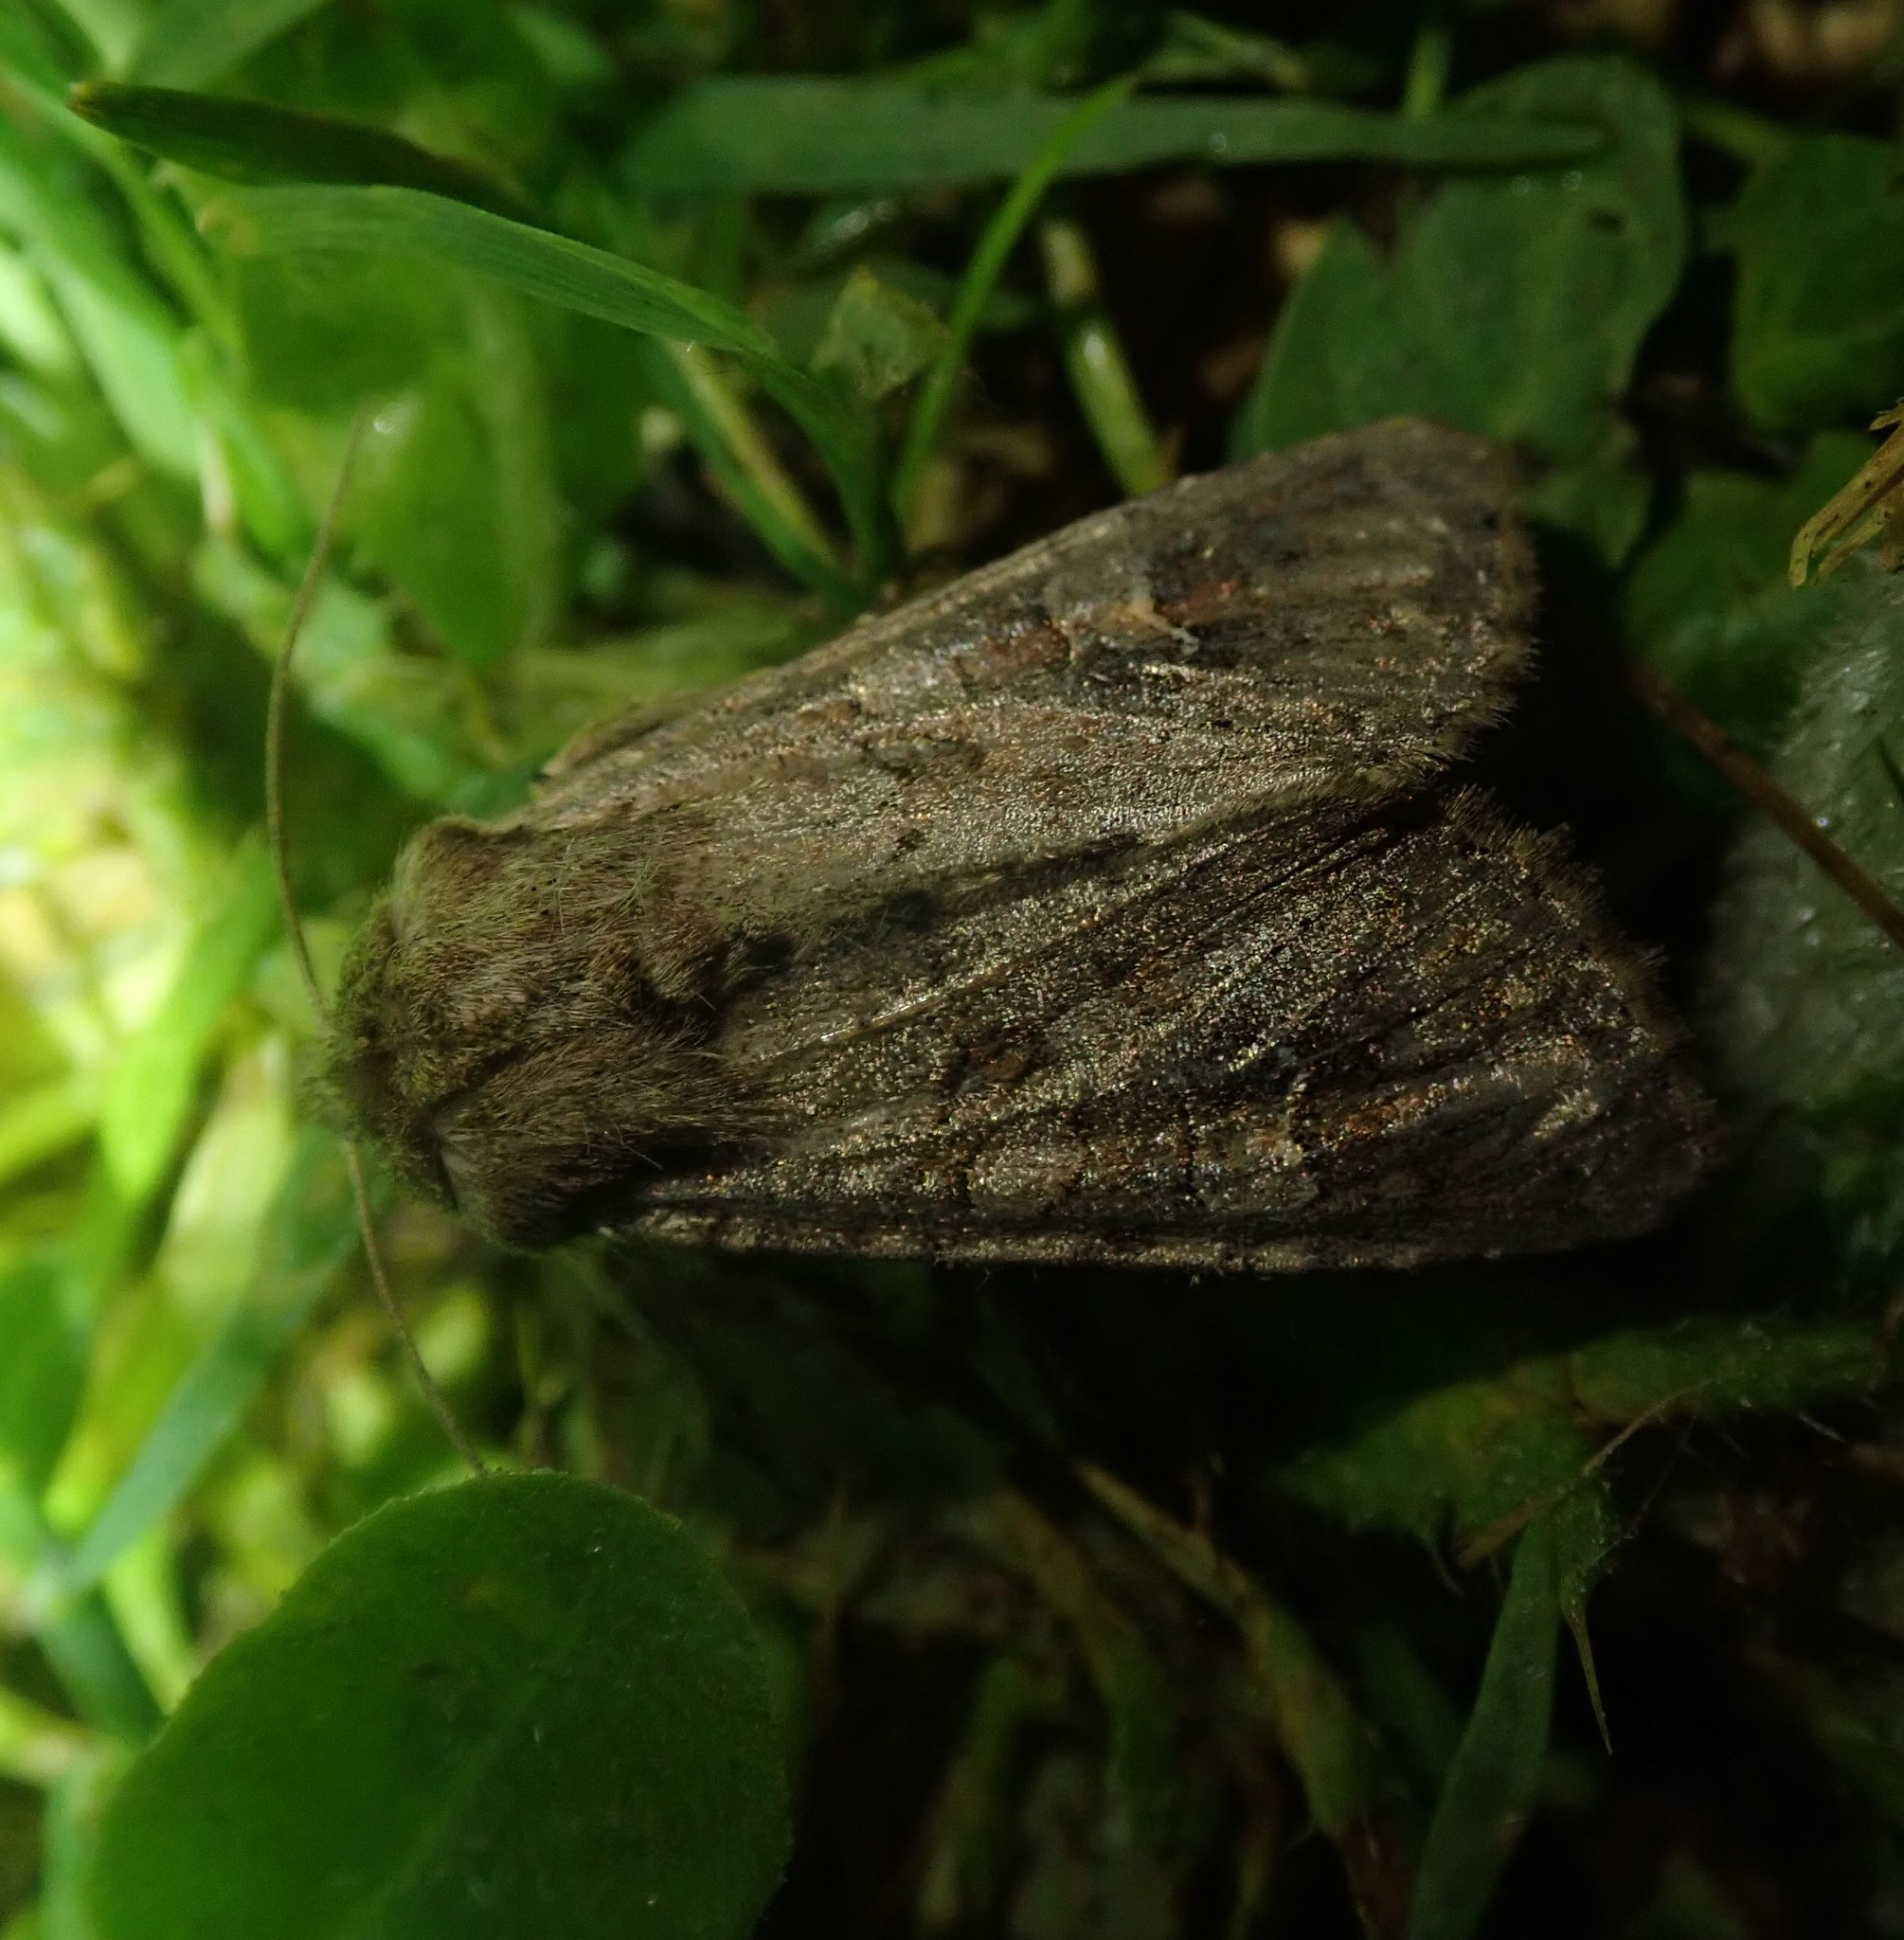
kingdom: Animalia
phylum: Arthropoda
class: Insecta
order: Lepidoptera
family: Noctuidae
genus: Apamea
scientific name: Apamea sordens
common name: Rustic shoulder-knot
